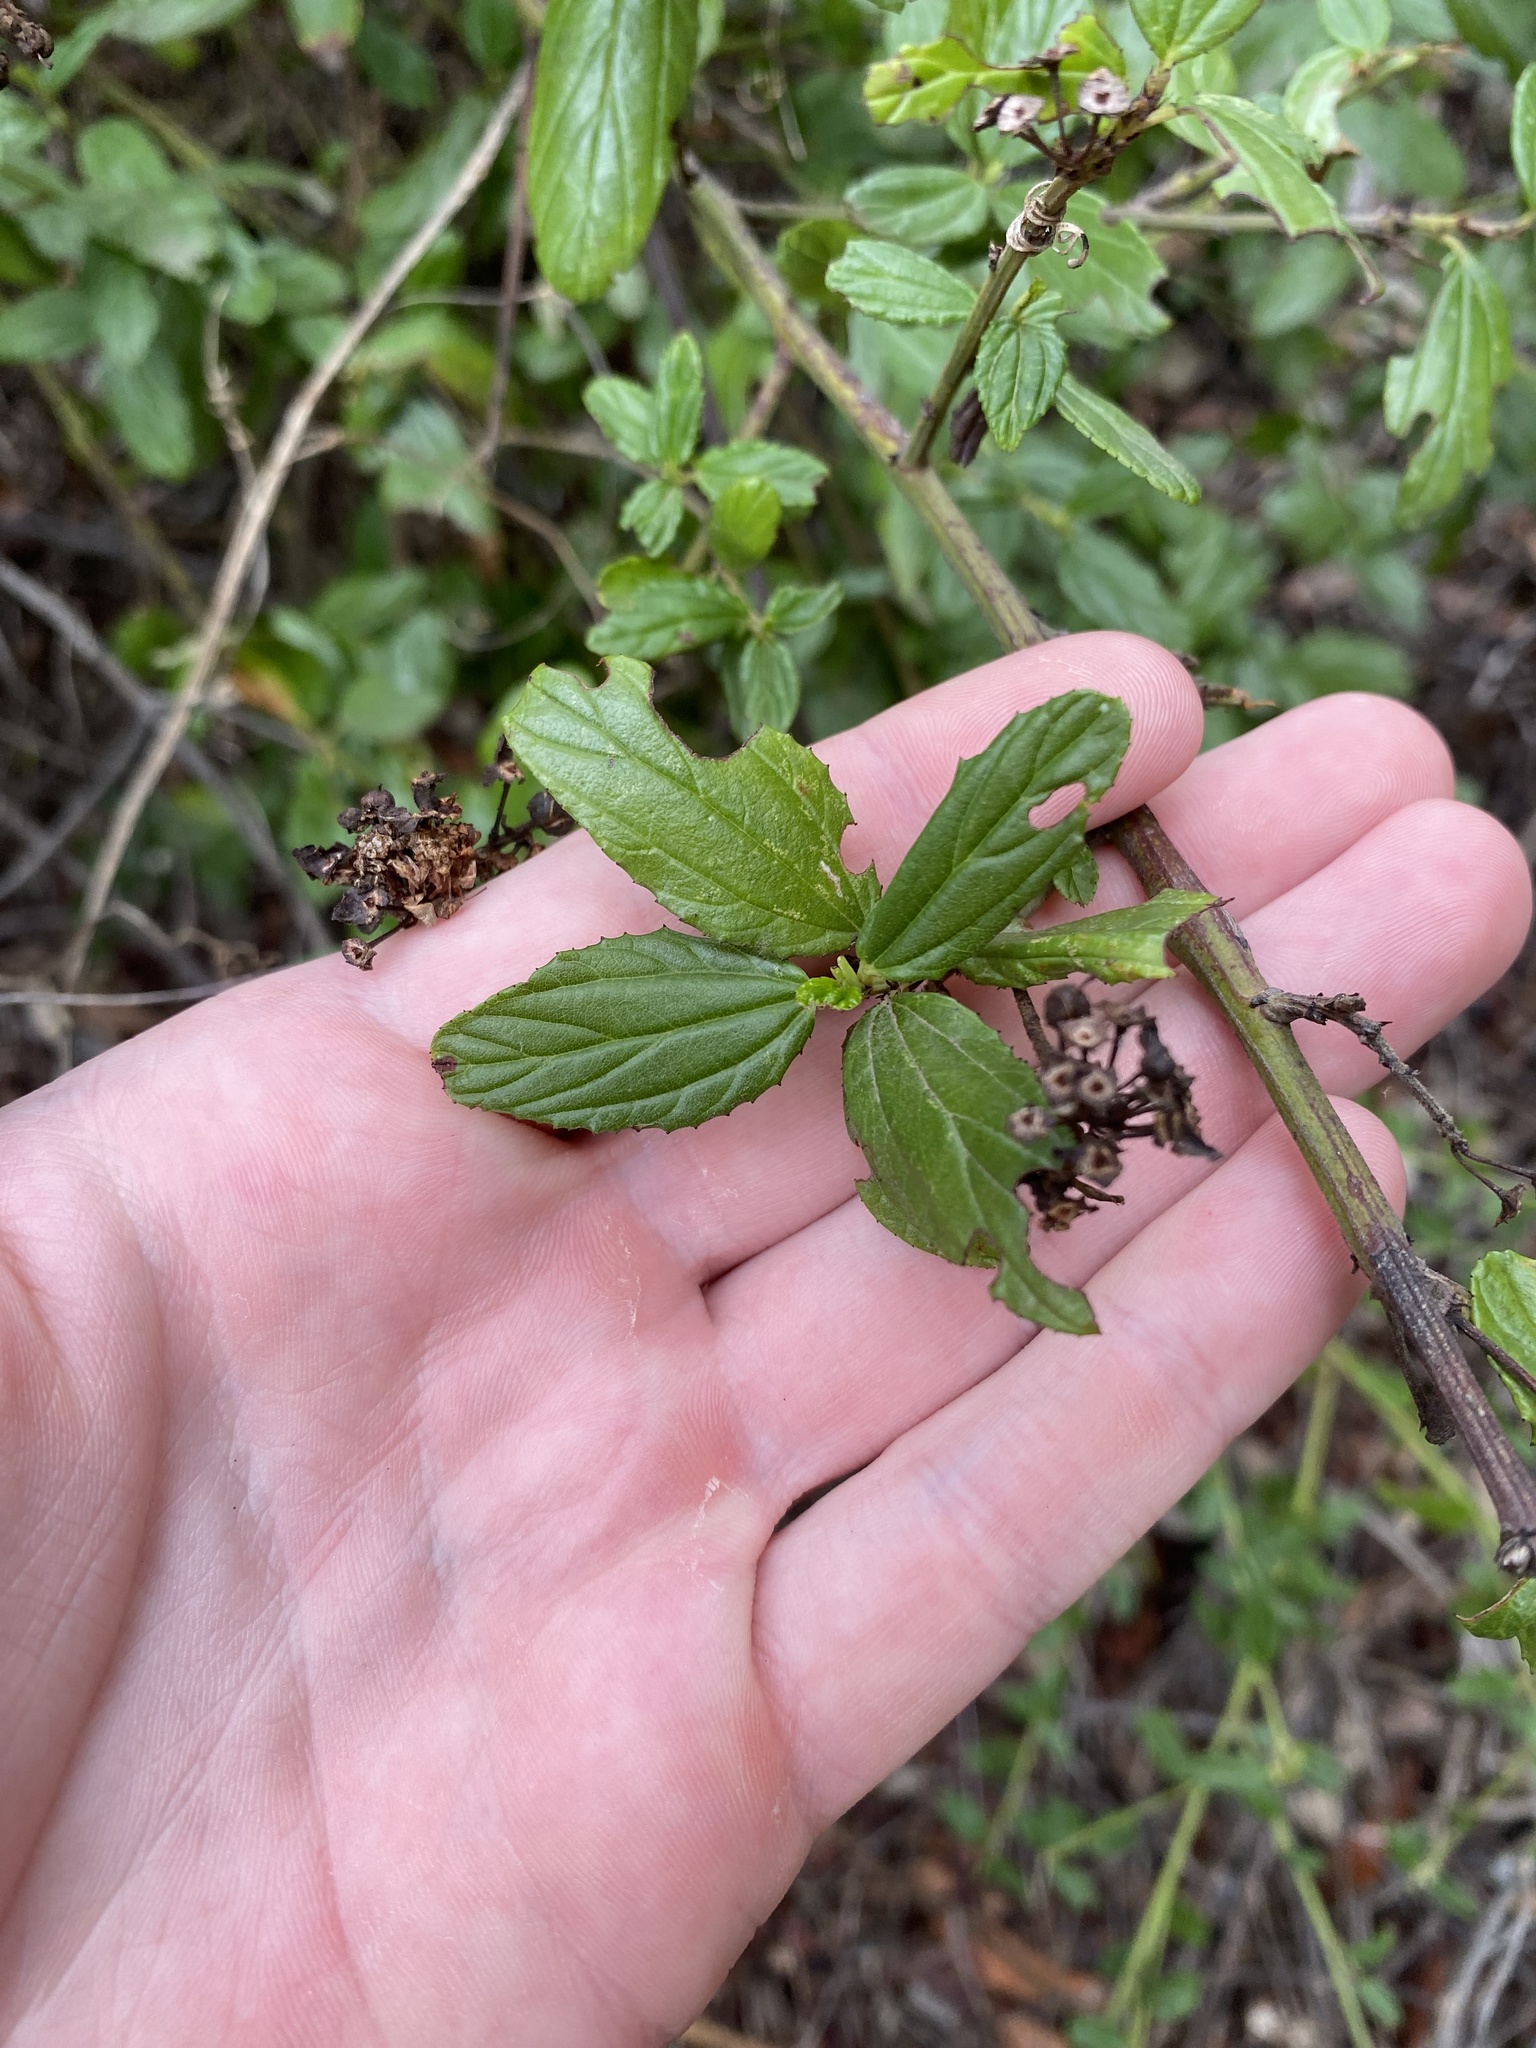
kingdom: Plantae
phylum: Tracheophyta
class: Magnoliopsida
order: Rosales
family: Rhamnaceae
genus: Ceanothus
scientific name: Ceanothus thyrsiflorus
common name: California-lilac
